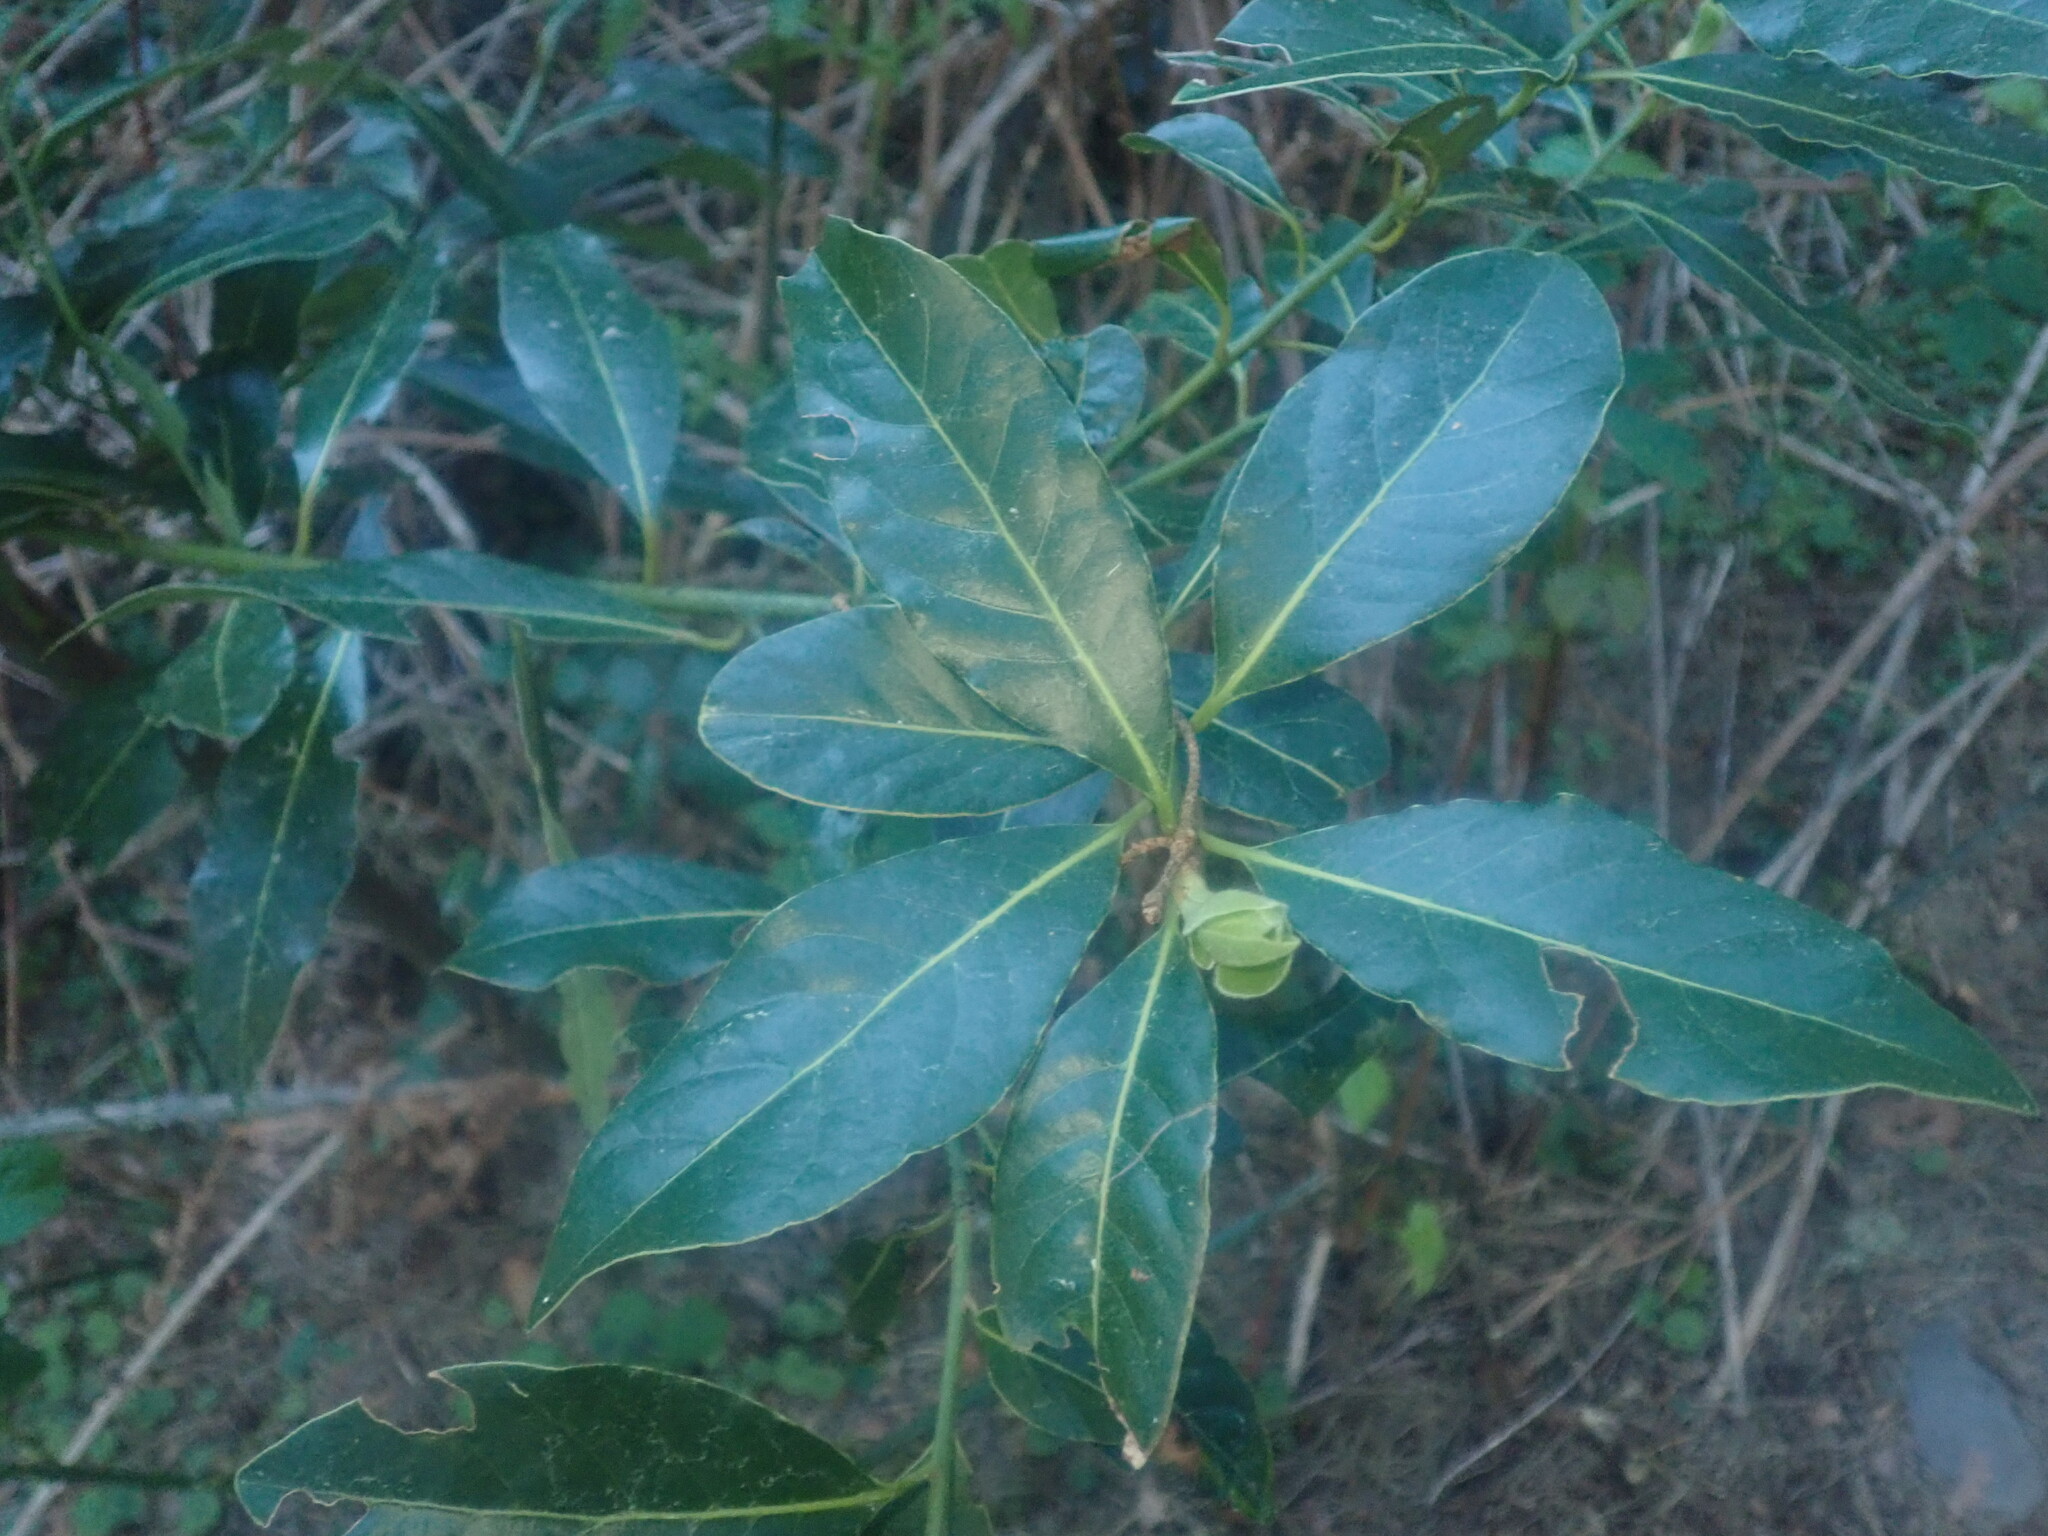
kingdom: Plantae
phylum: Tracheophyta
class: Magnoliopsida
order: Laurales
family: Lauraceae
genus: Laurus
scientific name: Laurus novocanariensis
